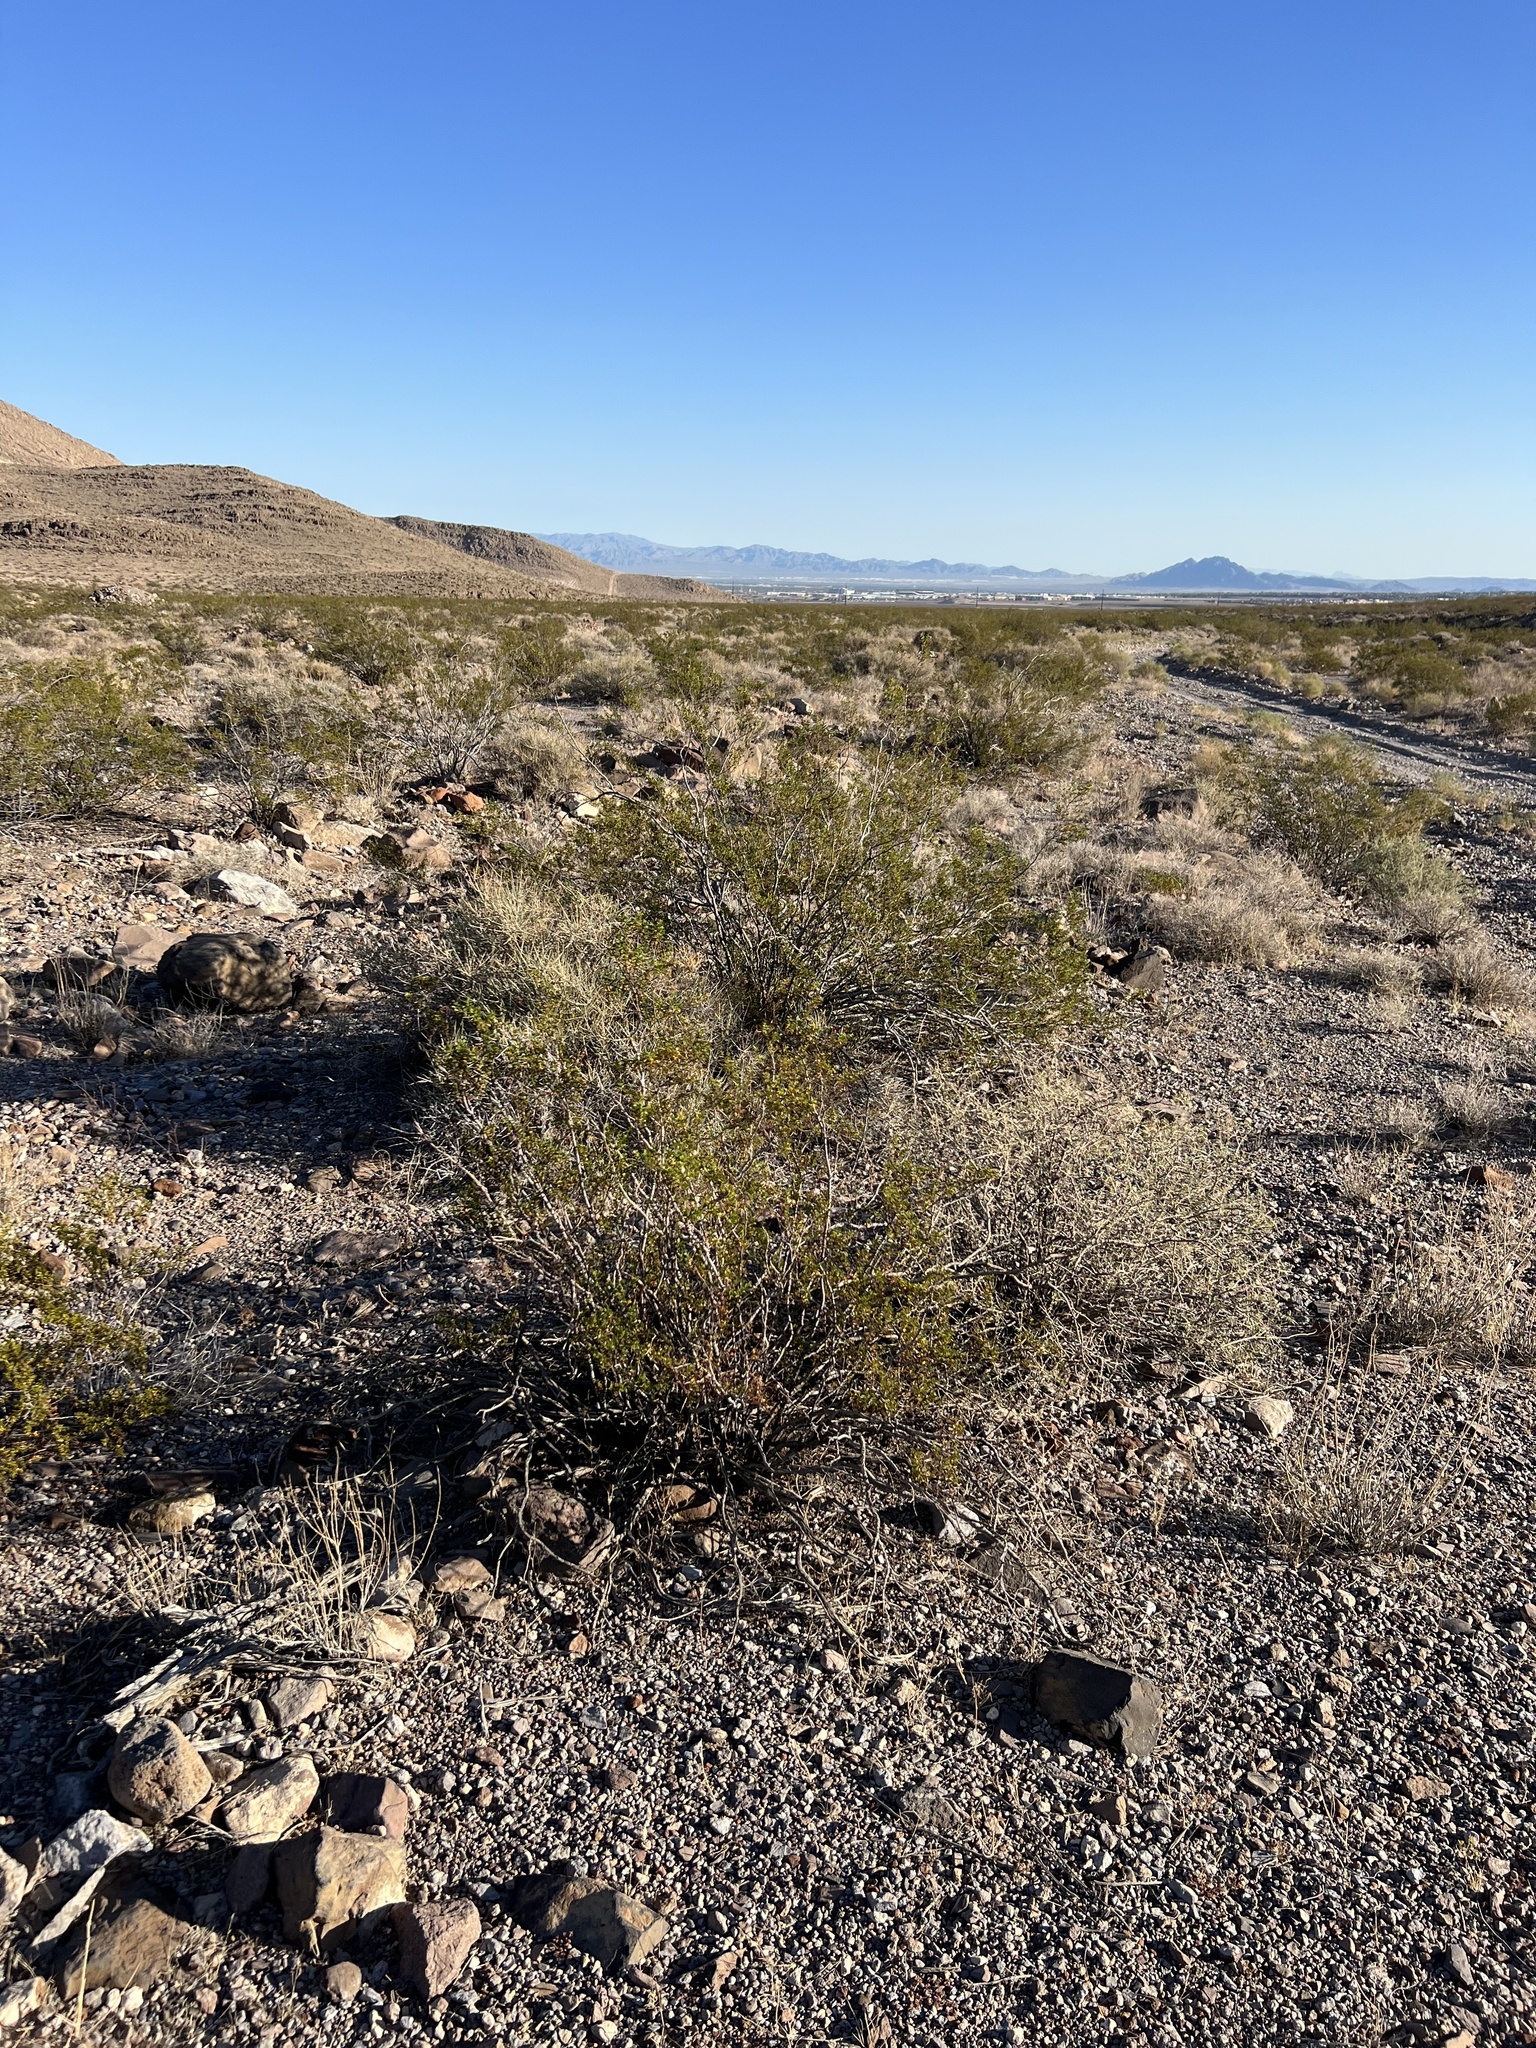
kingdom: Plantae
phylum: Tracheophyta
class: Magnoliopsida
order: Zygophyllales
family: Zygophyllaceae
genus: Larrea
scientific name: Larrea tridentata
